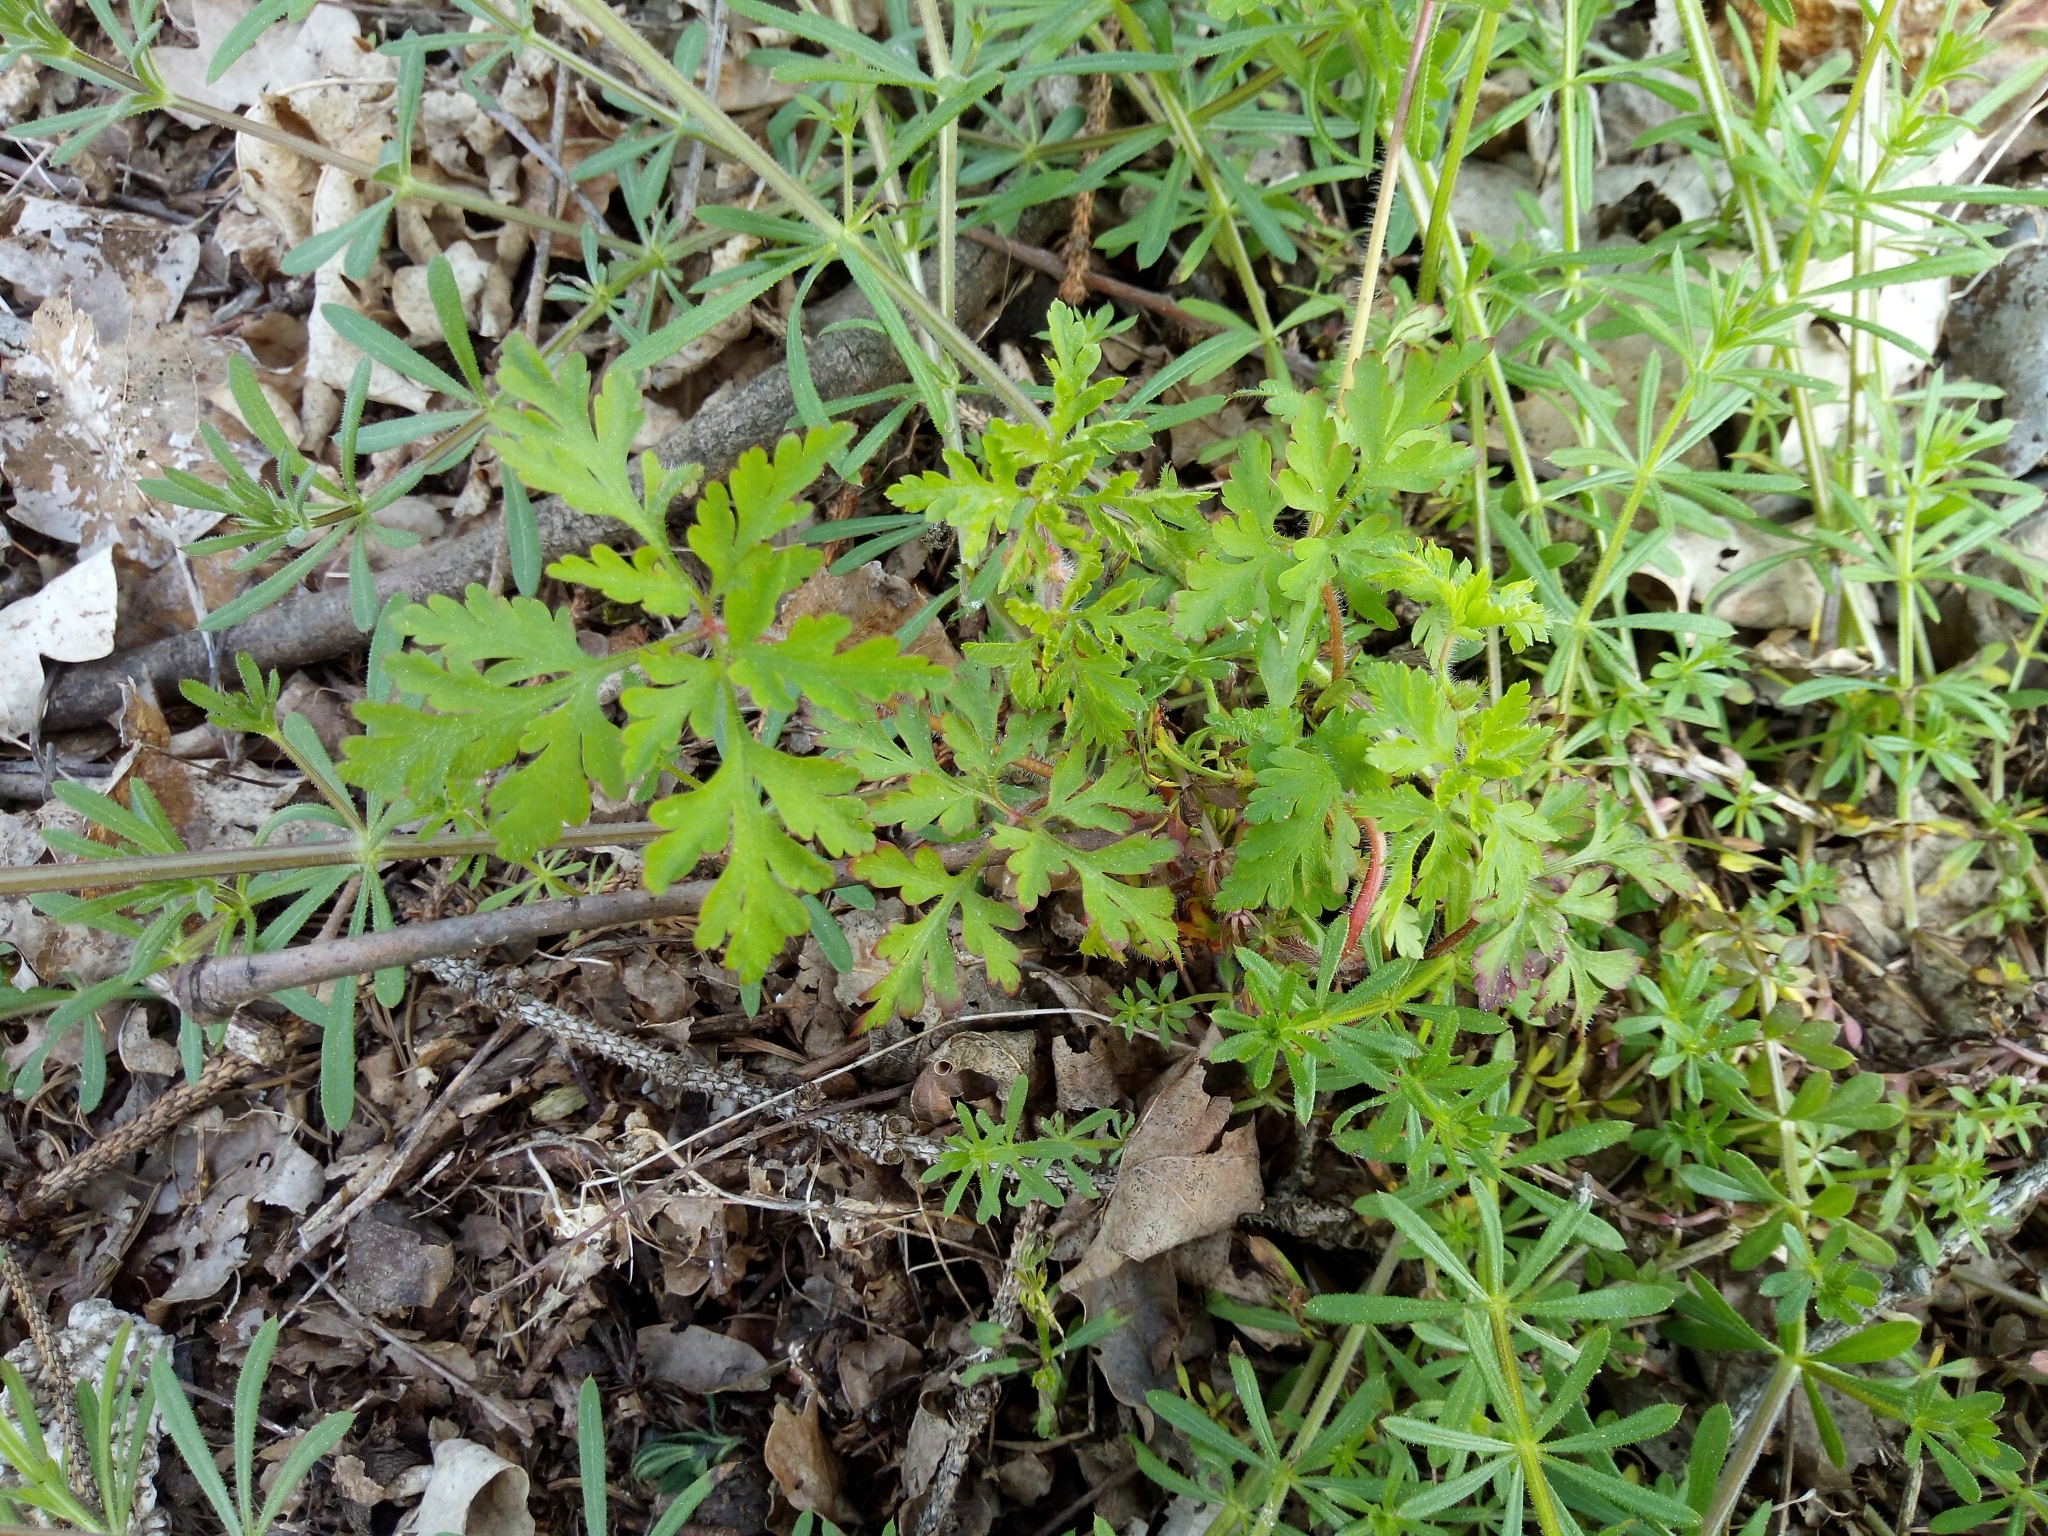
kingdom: Plantae
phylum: Tracheophyta
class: Magnoliopsida
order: Geraniales
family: Geraniaceae
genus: Geranium
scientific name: Geranium robertianum
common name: Herb-robert
